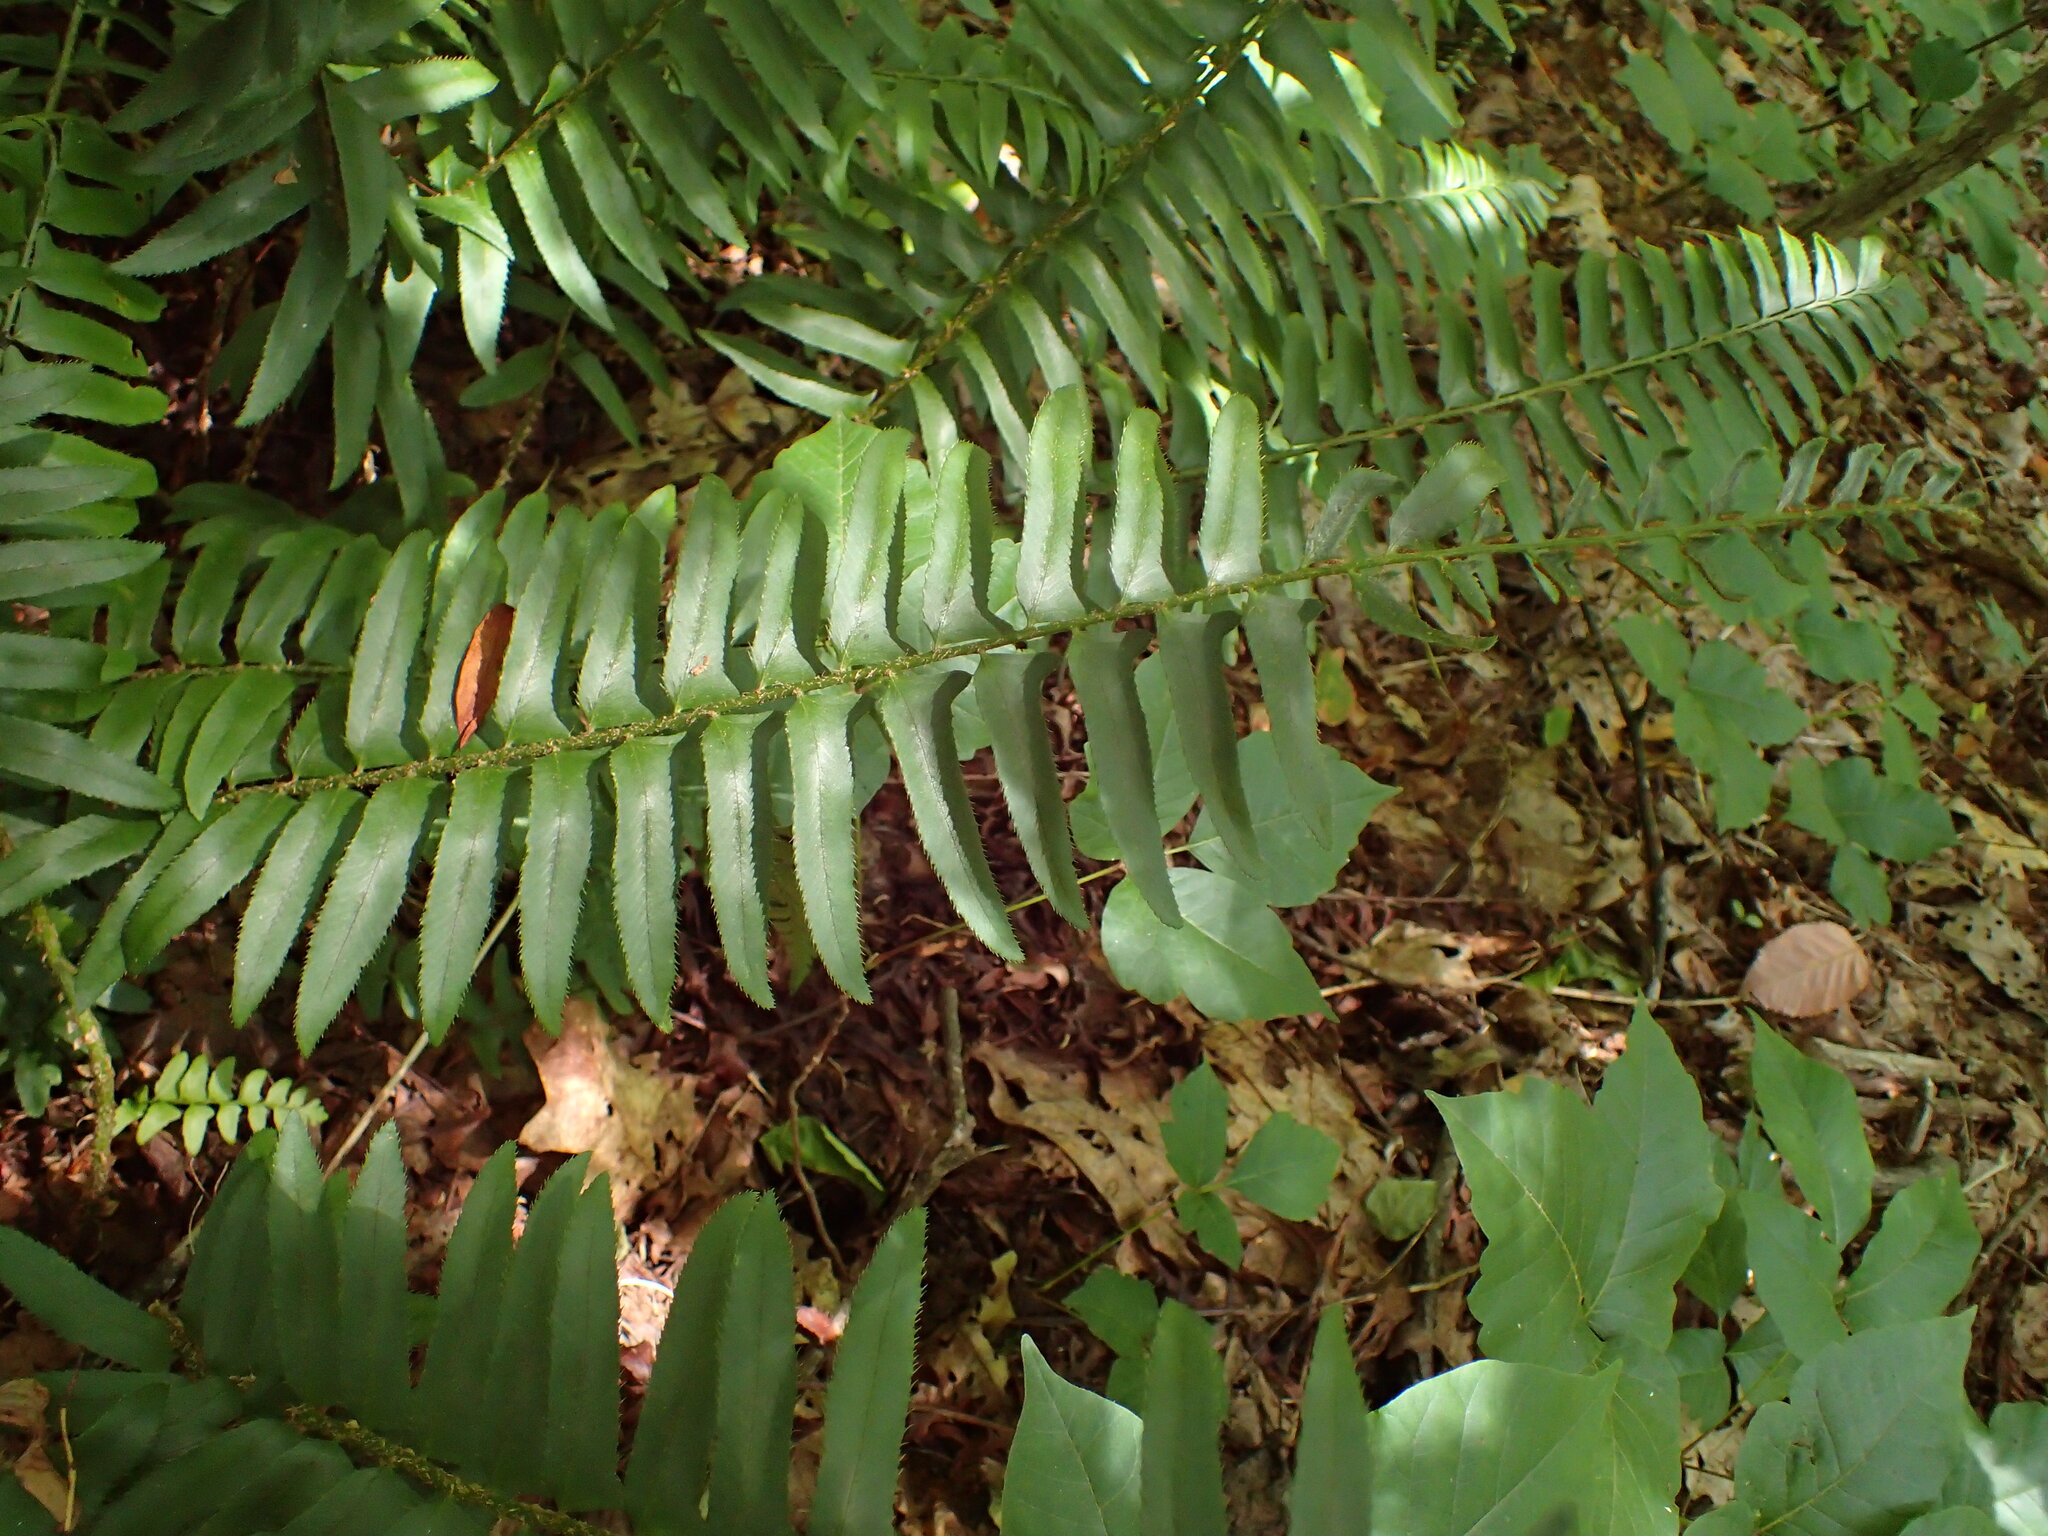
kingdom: Plantae
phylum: Tracheophyta
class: Polypodiopsida
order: Polypodiales
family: Dryopteridaceae
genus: Polystichum
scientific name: Polystichum acrostichoides
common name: Christmas fern
